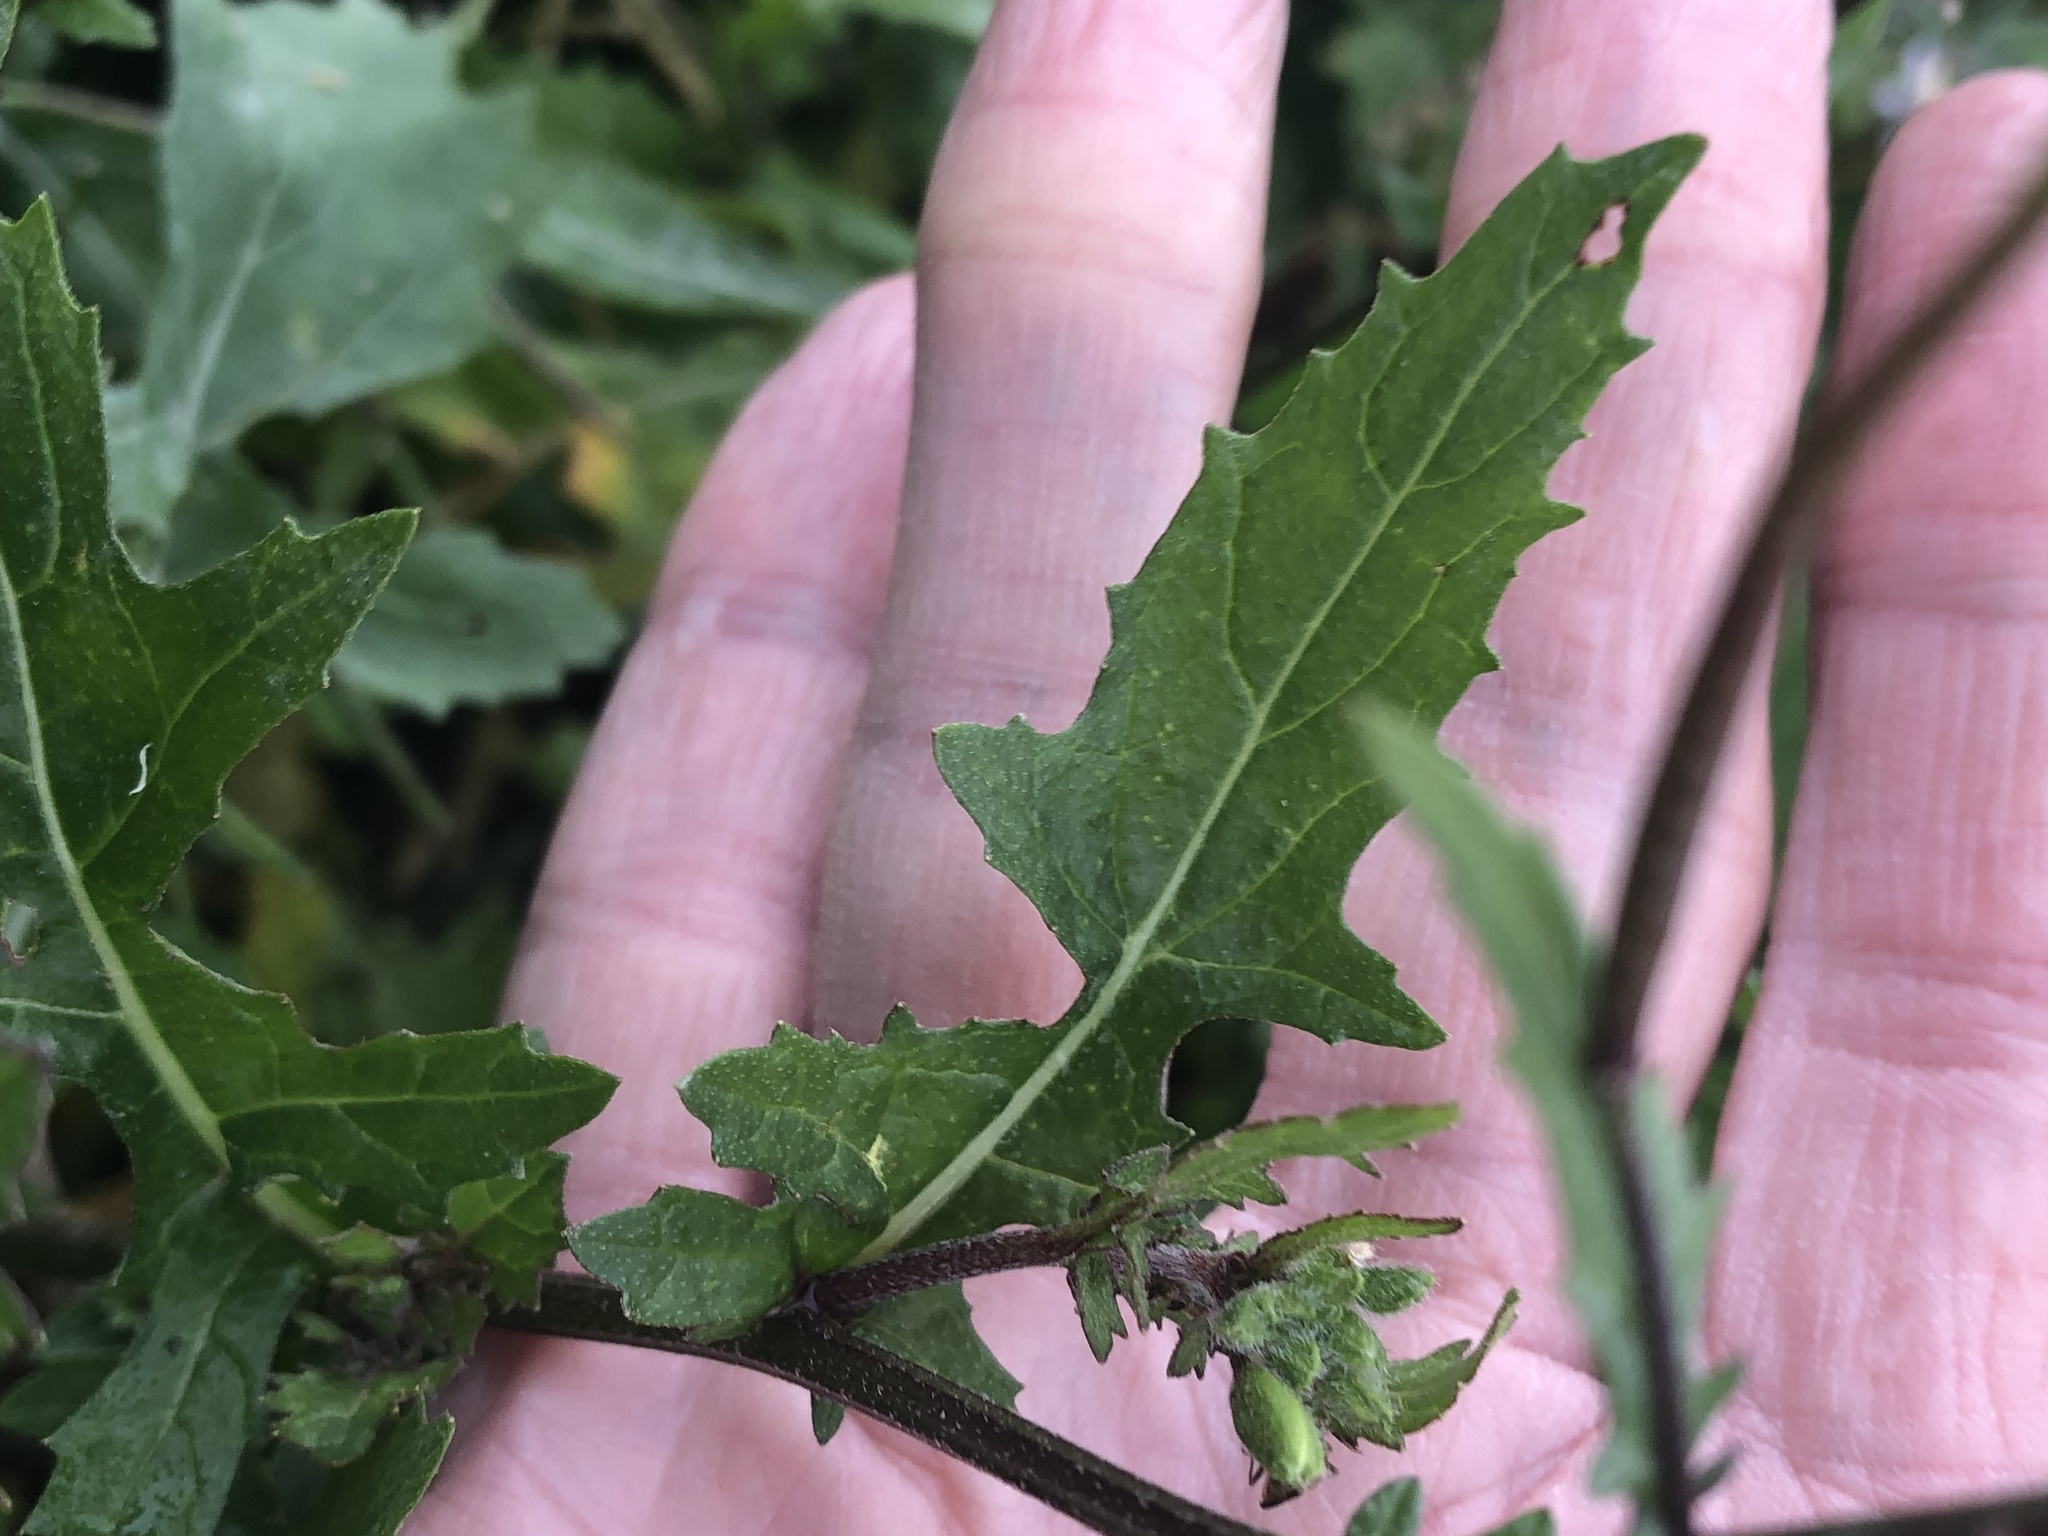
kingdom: Plantae
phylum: Tracheophyta
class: Magnoliopsida
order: Brassicales
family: Brassicaceae
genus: Diplotaxis
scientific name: Diplotaxis erucoides
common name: White rocket
